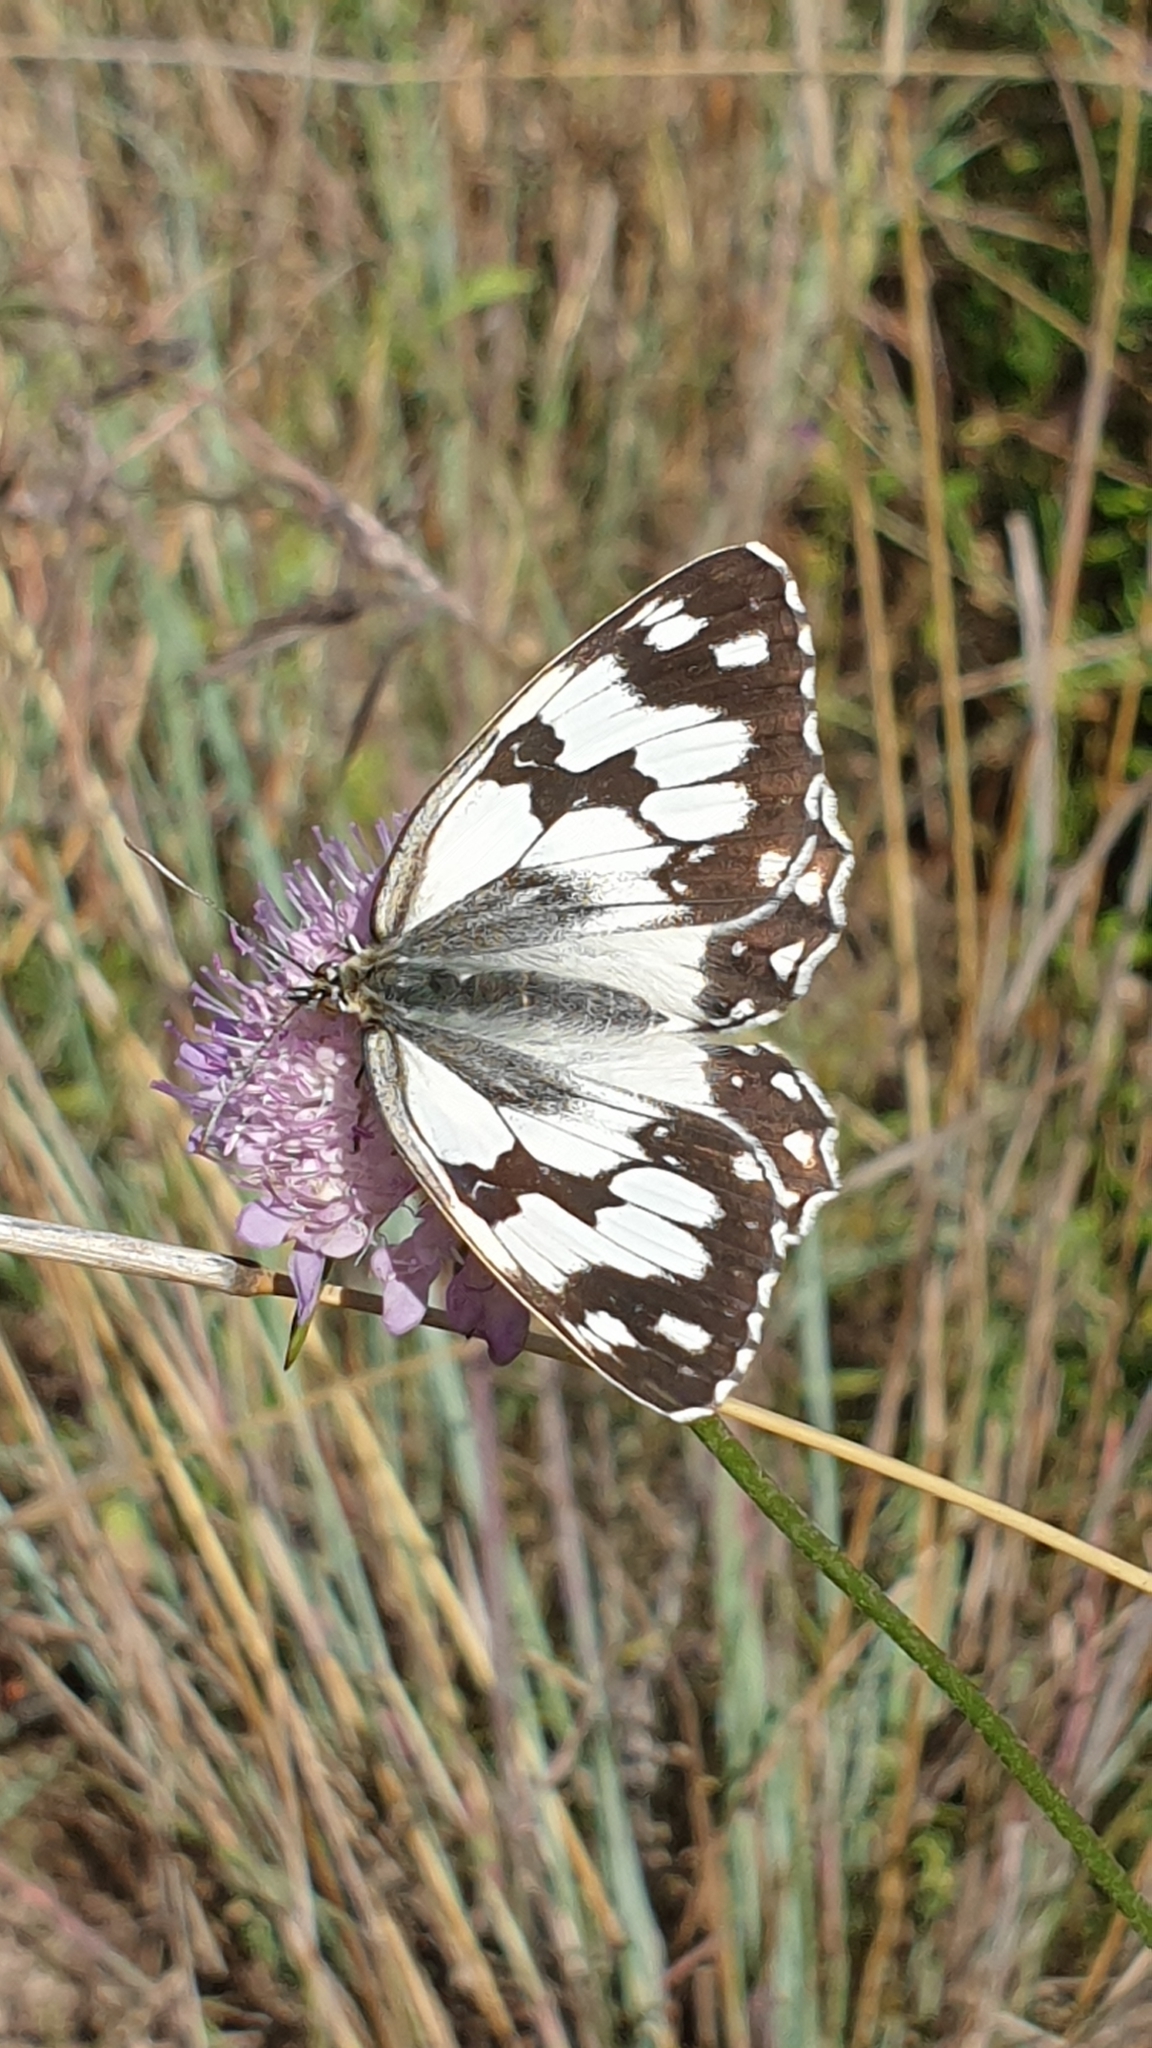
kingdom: Animalia
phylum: Arthropoda
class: Insecta
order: Lepidoptera
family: Nymphalidae
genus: Melanargia
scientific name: Melanargia lachesis
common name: Iberian marbled white
